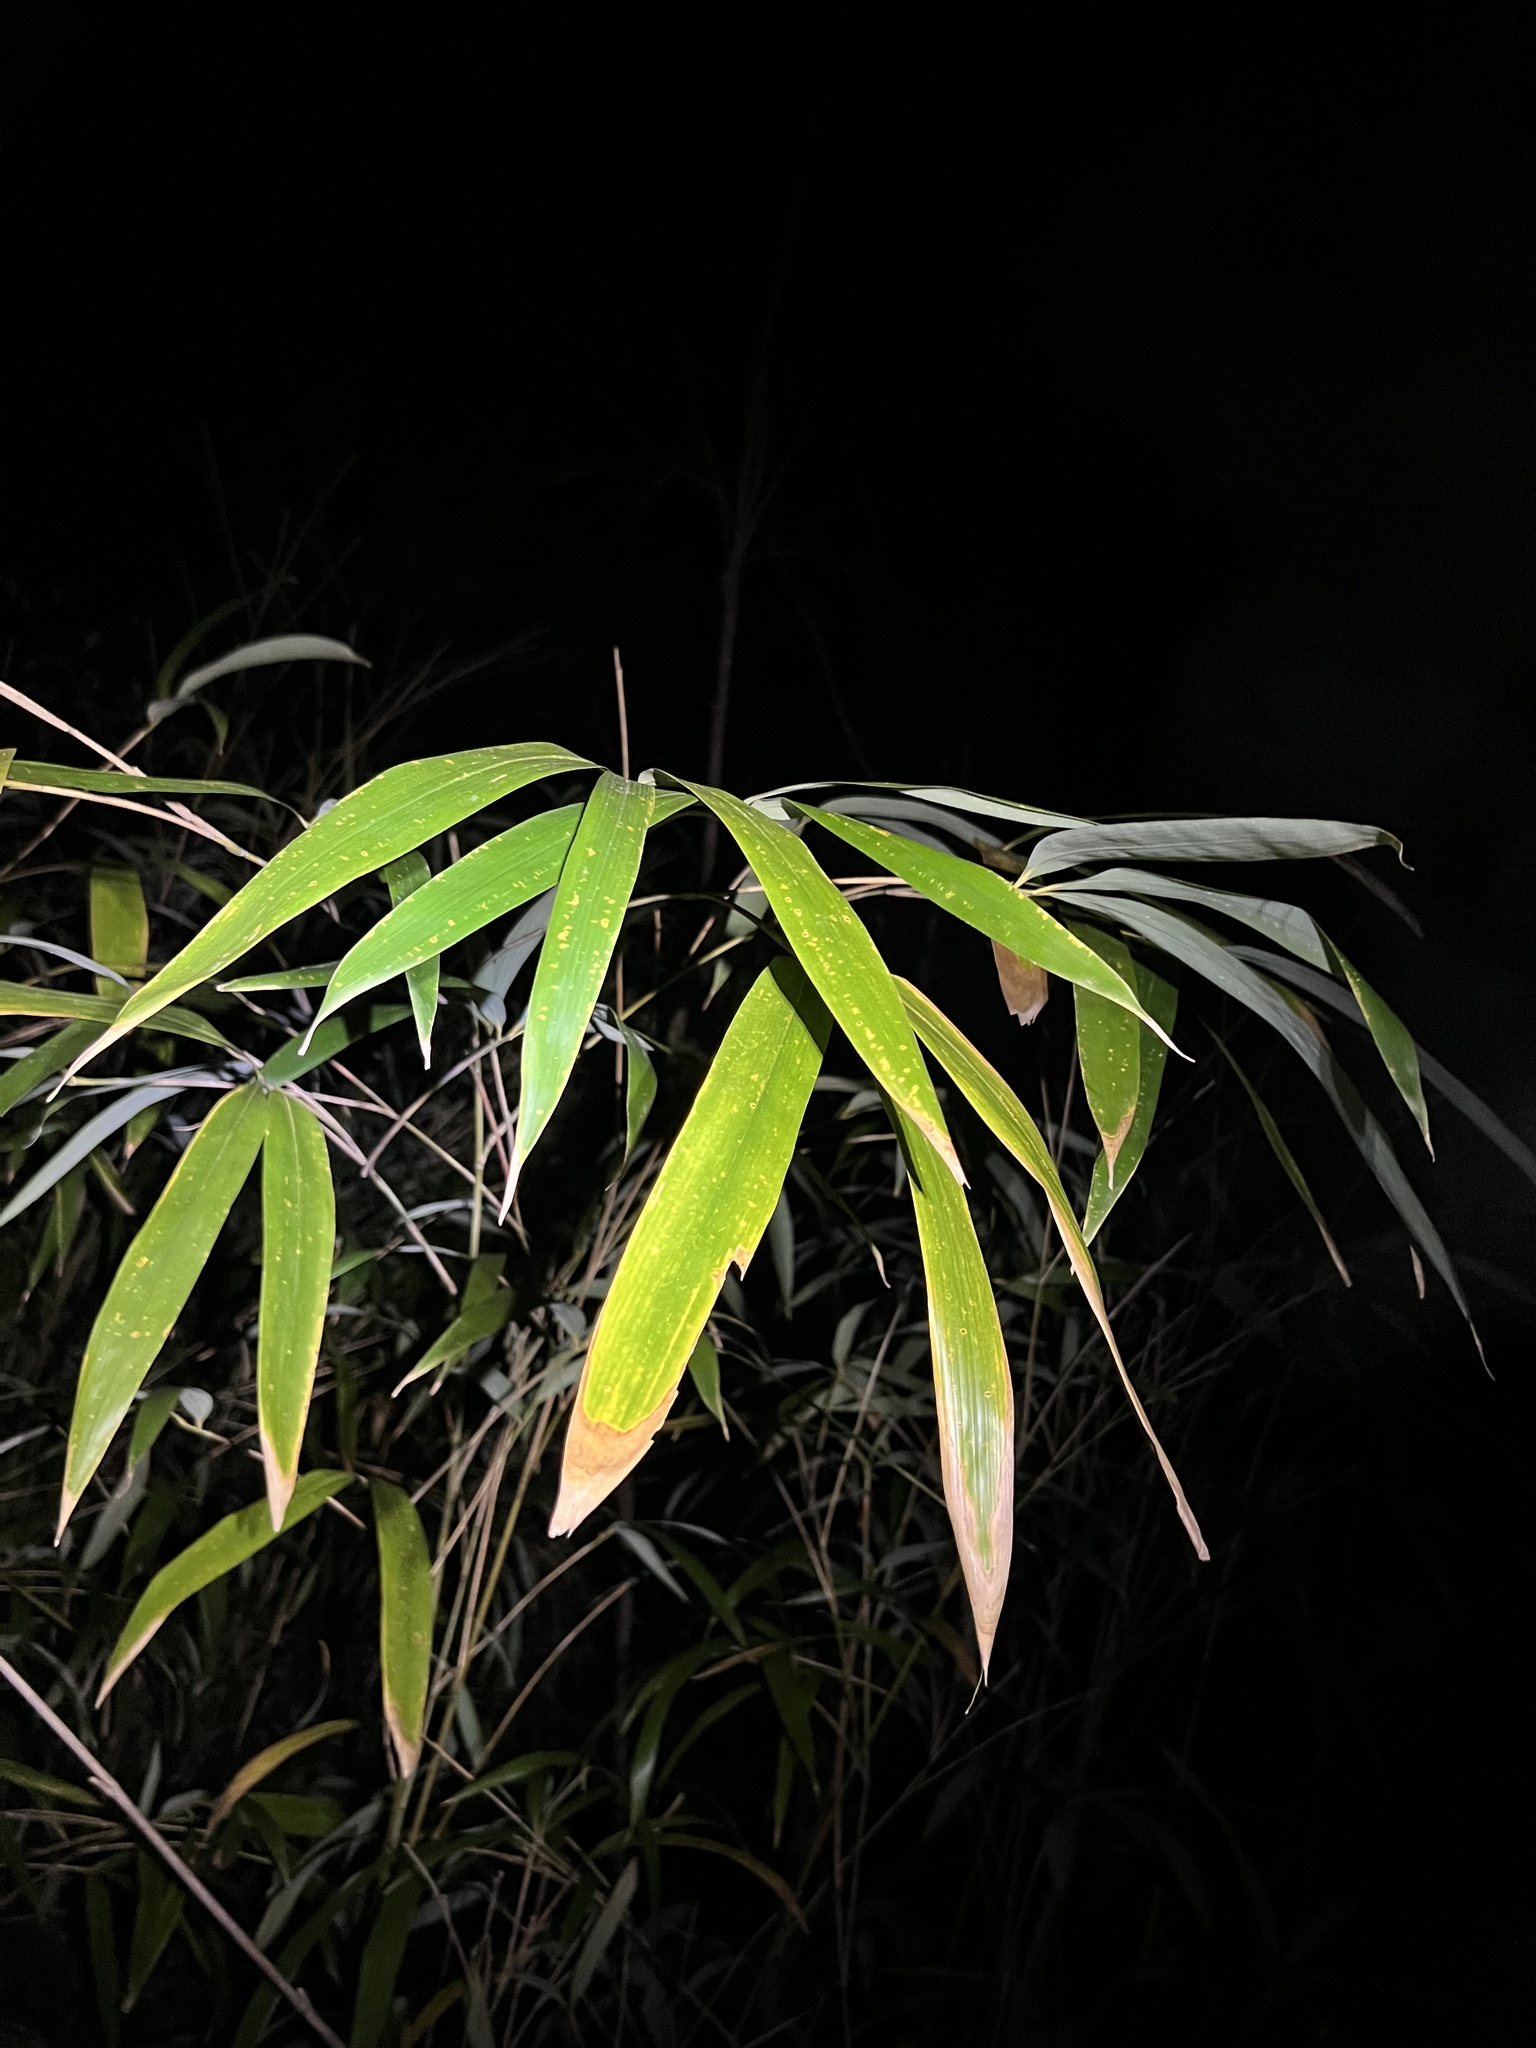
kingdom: Plantae
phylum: Tracheophyta
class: Liliopsida
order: Poales
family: Poaceae
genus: Arundinaria
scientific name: Arundinaria gigantea
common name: Giant cane
